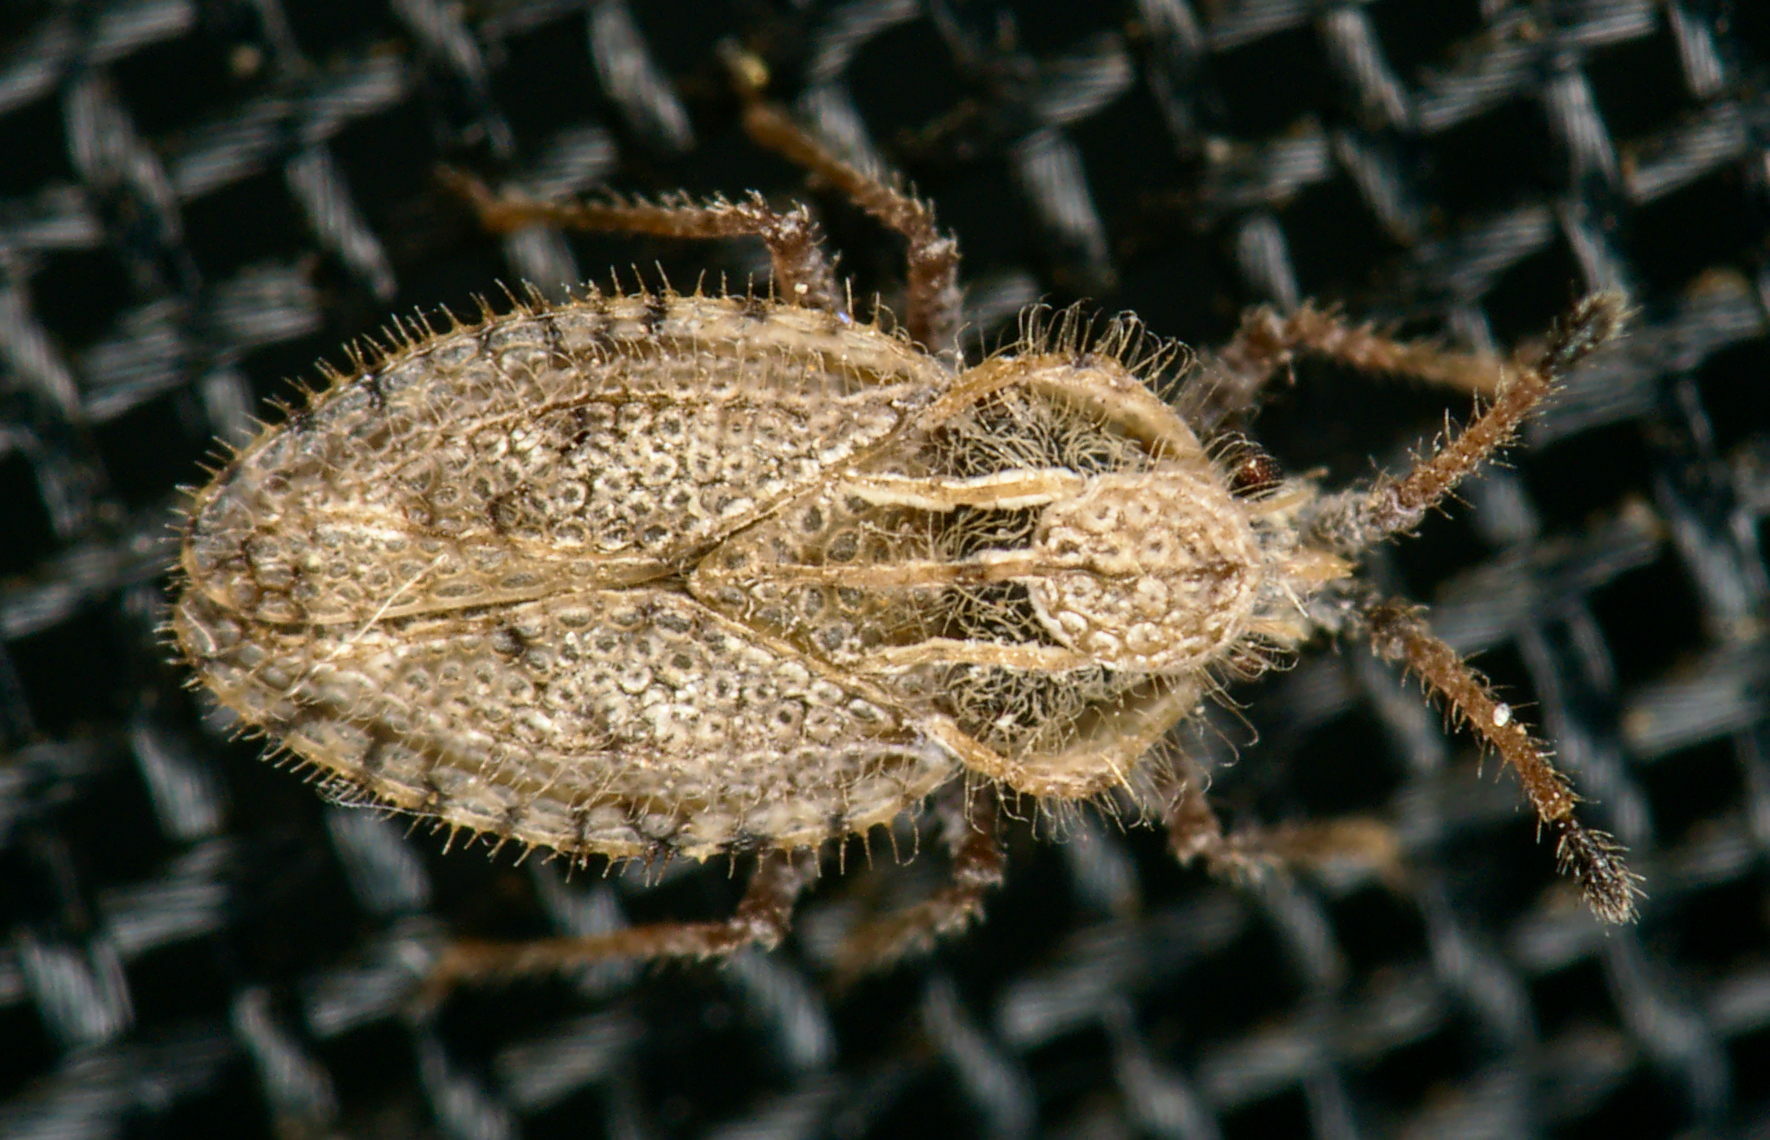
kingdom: Animalia
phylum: Arthropoda
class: Insecta
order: Hemiptera
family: Tingidae
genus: Lasiacantha
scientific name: Lasiacantha capucina
